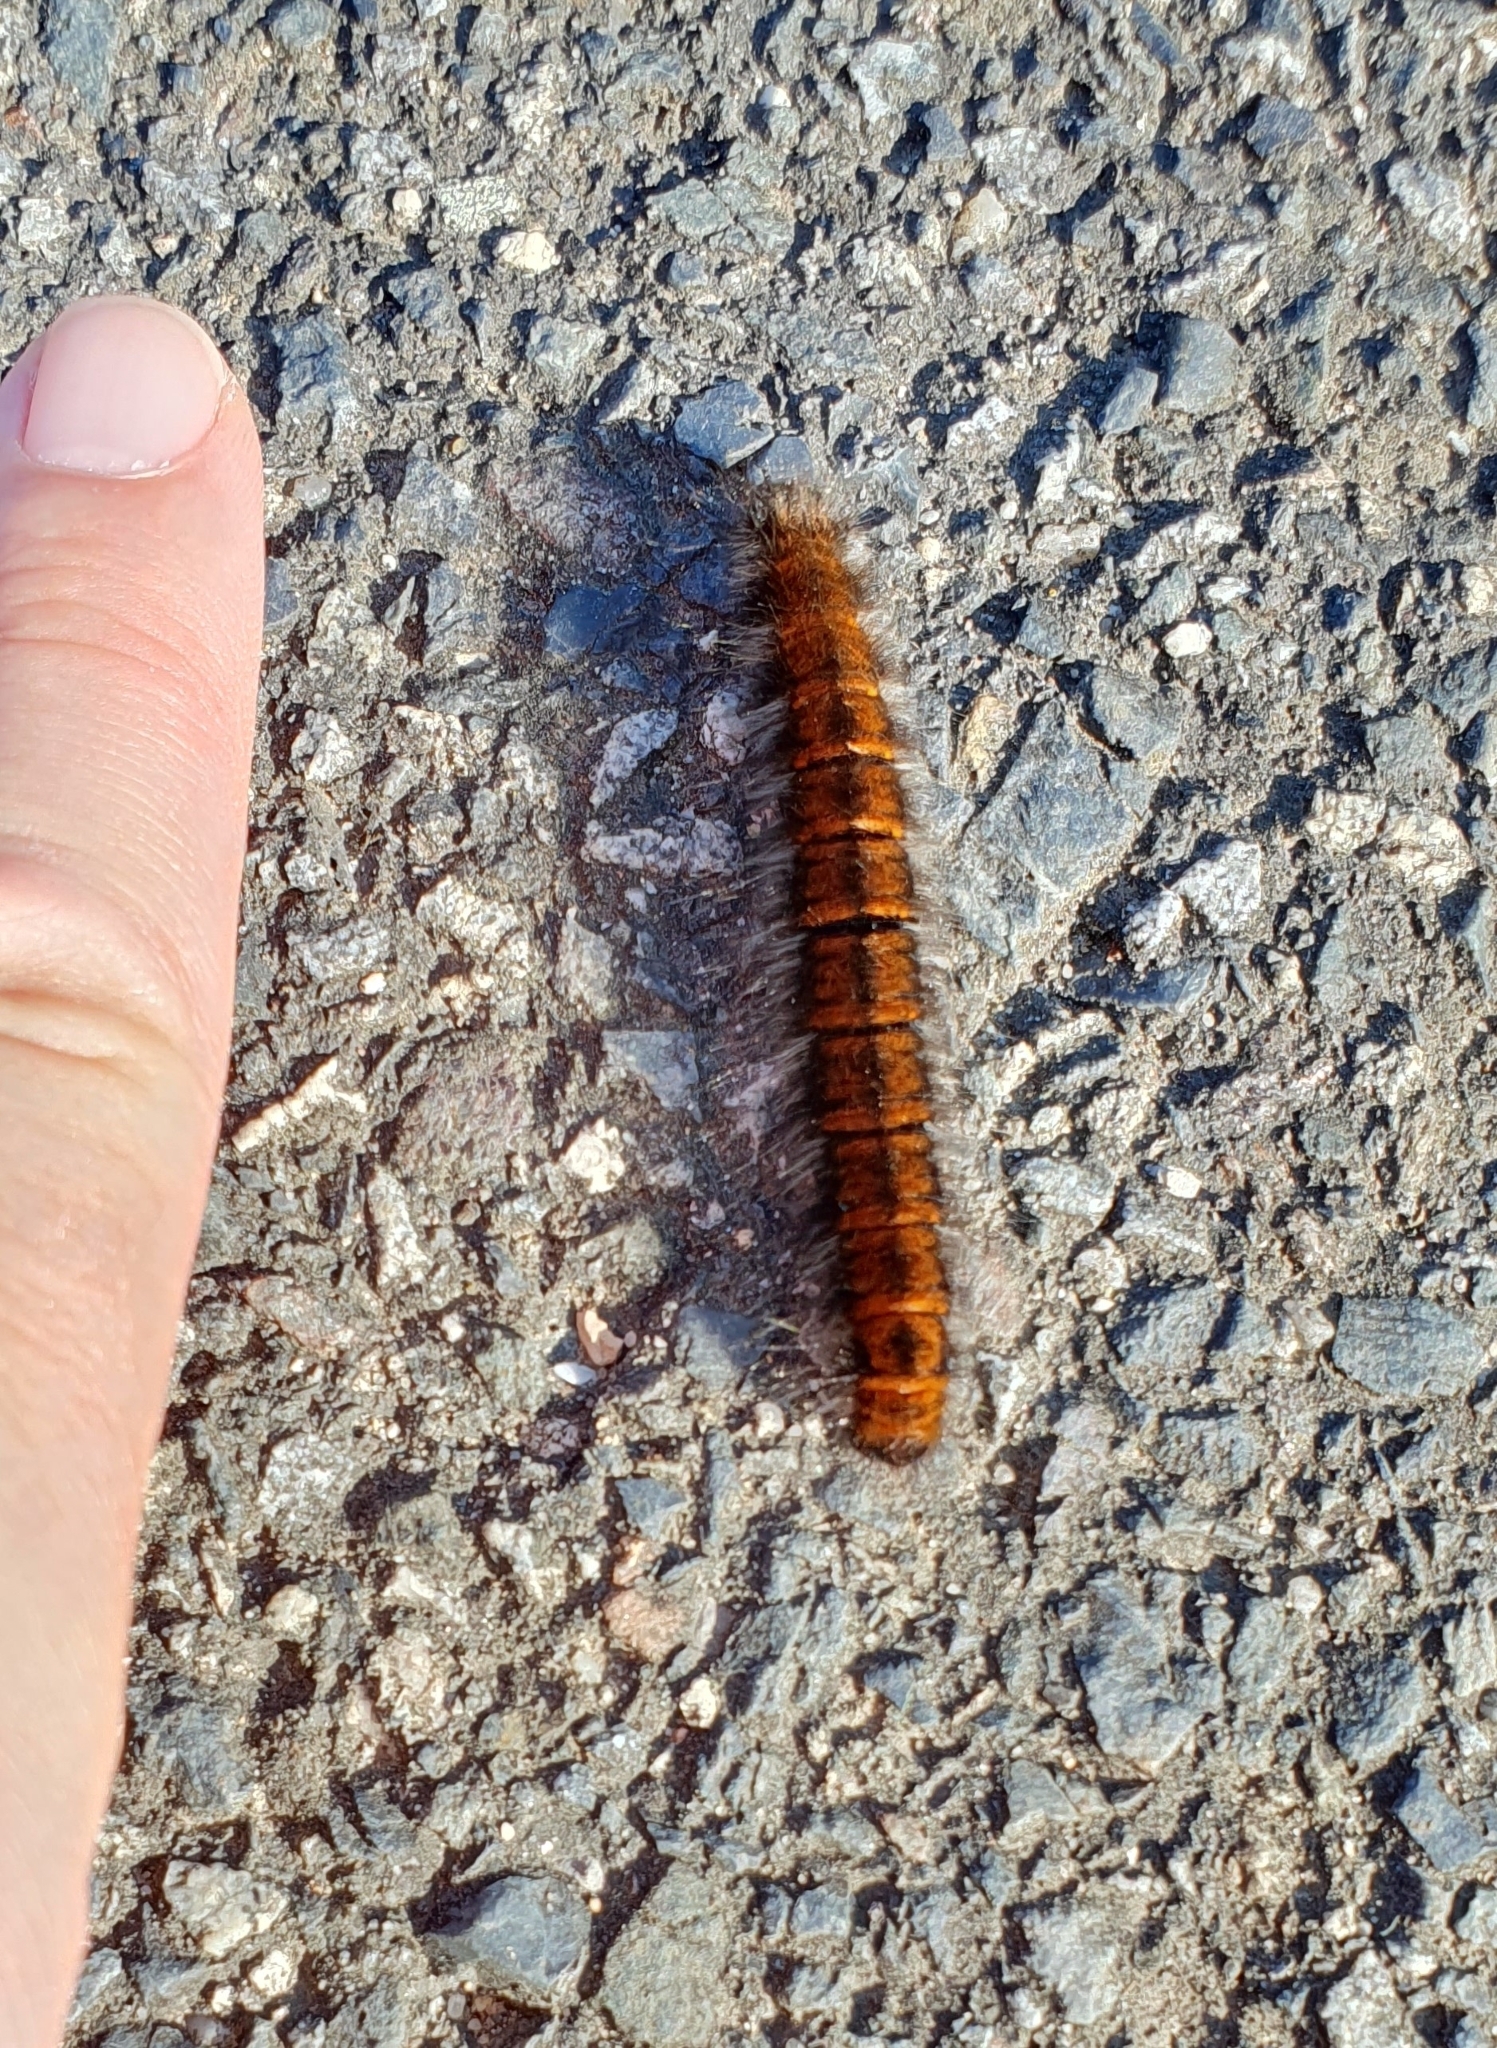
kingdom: Animalia
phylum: Arthropoda
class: Insecta
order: Lepidoptera
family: Lasiocampidae
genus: Macrothylacia
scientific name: Macrothylacia rubi
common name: Fox moth
